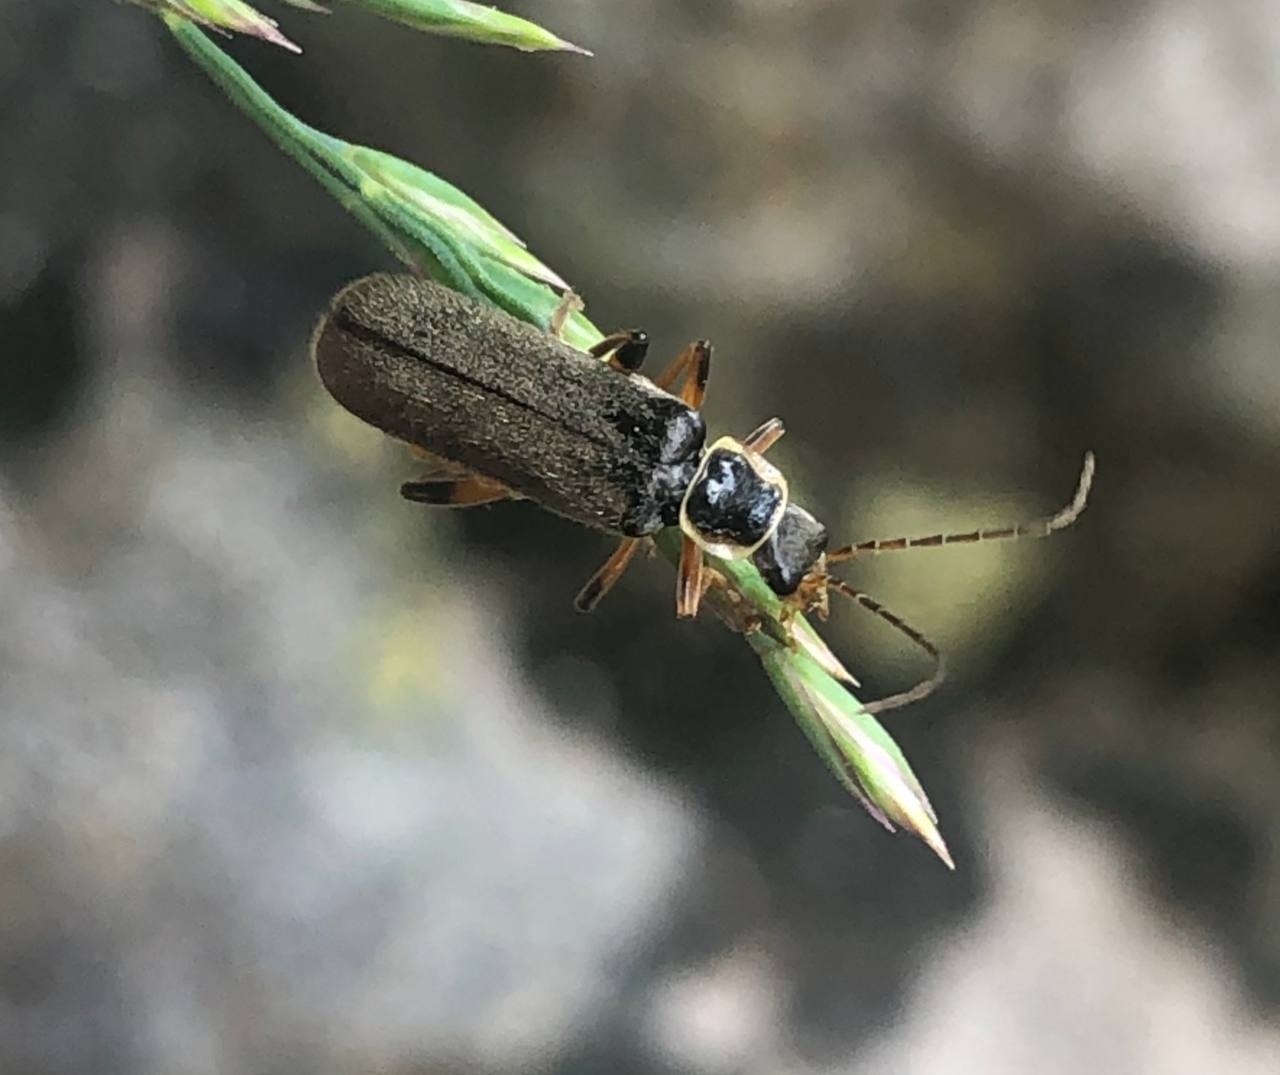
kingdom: Animalia
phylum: Arthropoda
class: Insecta
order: Coleoptera
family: Cantharidae
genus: Cantharis
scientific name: Cantharis nigricans
